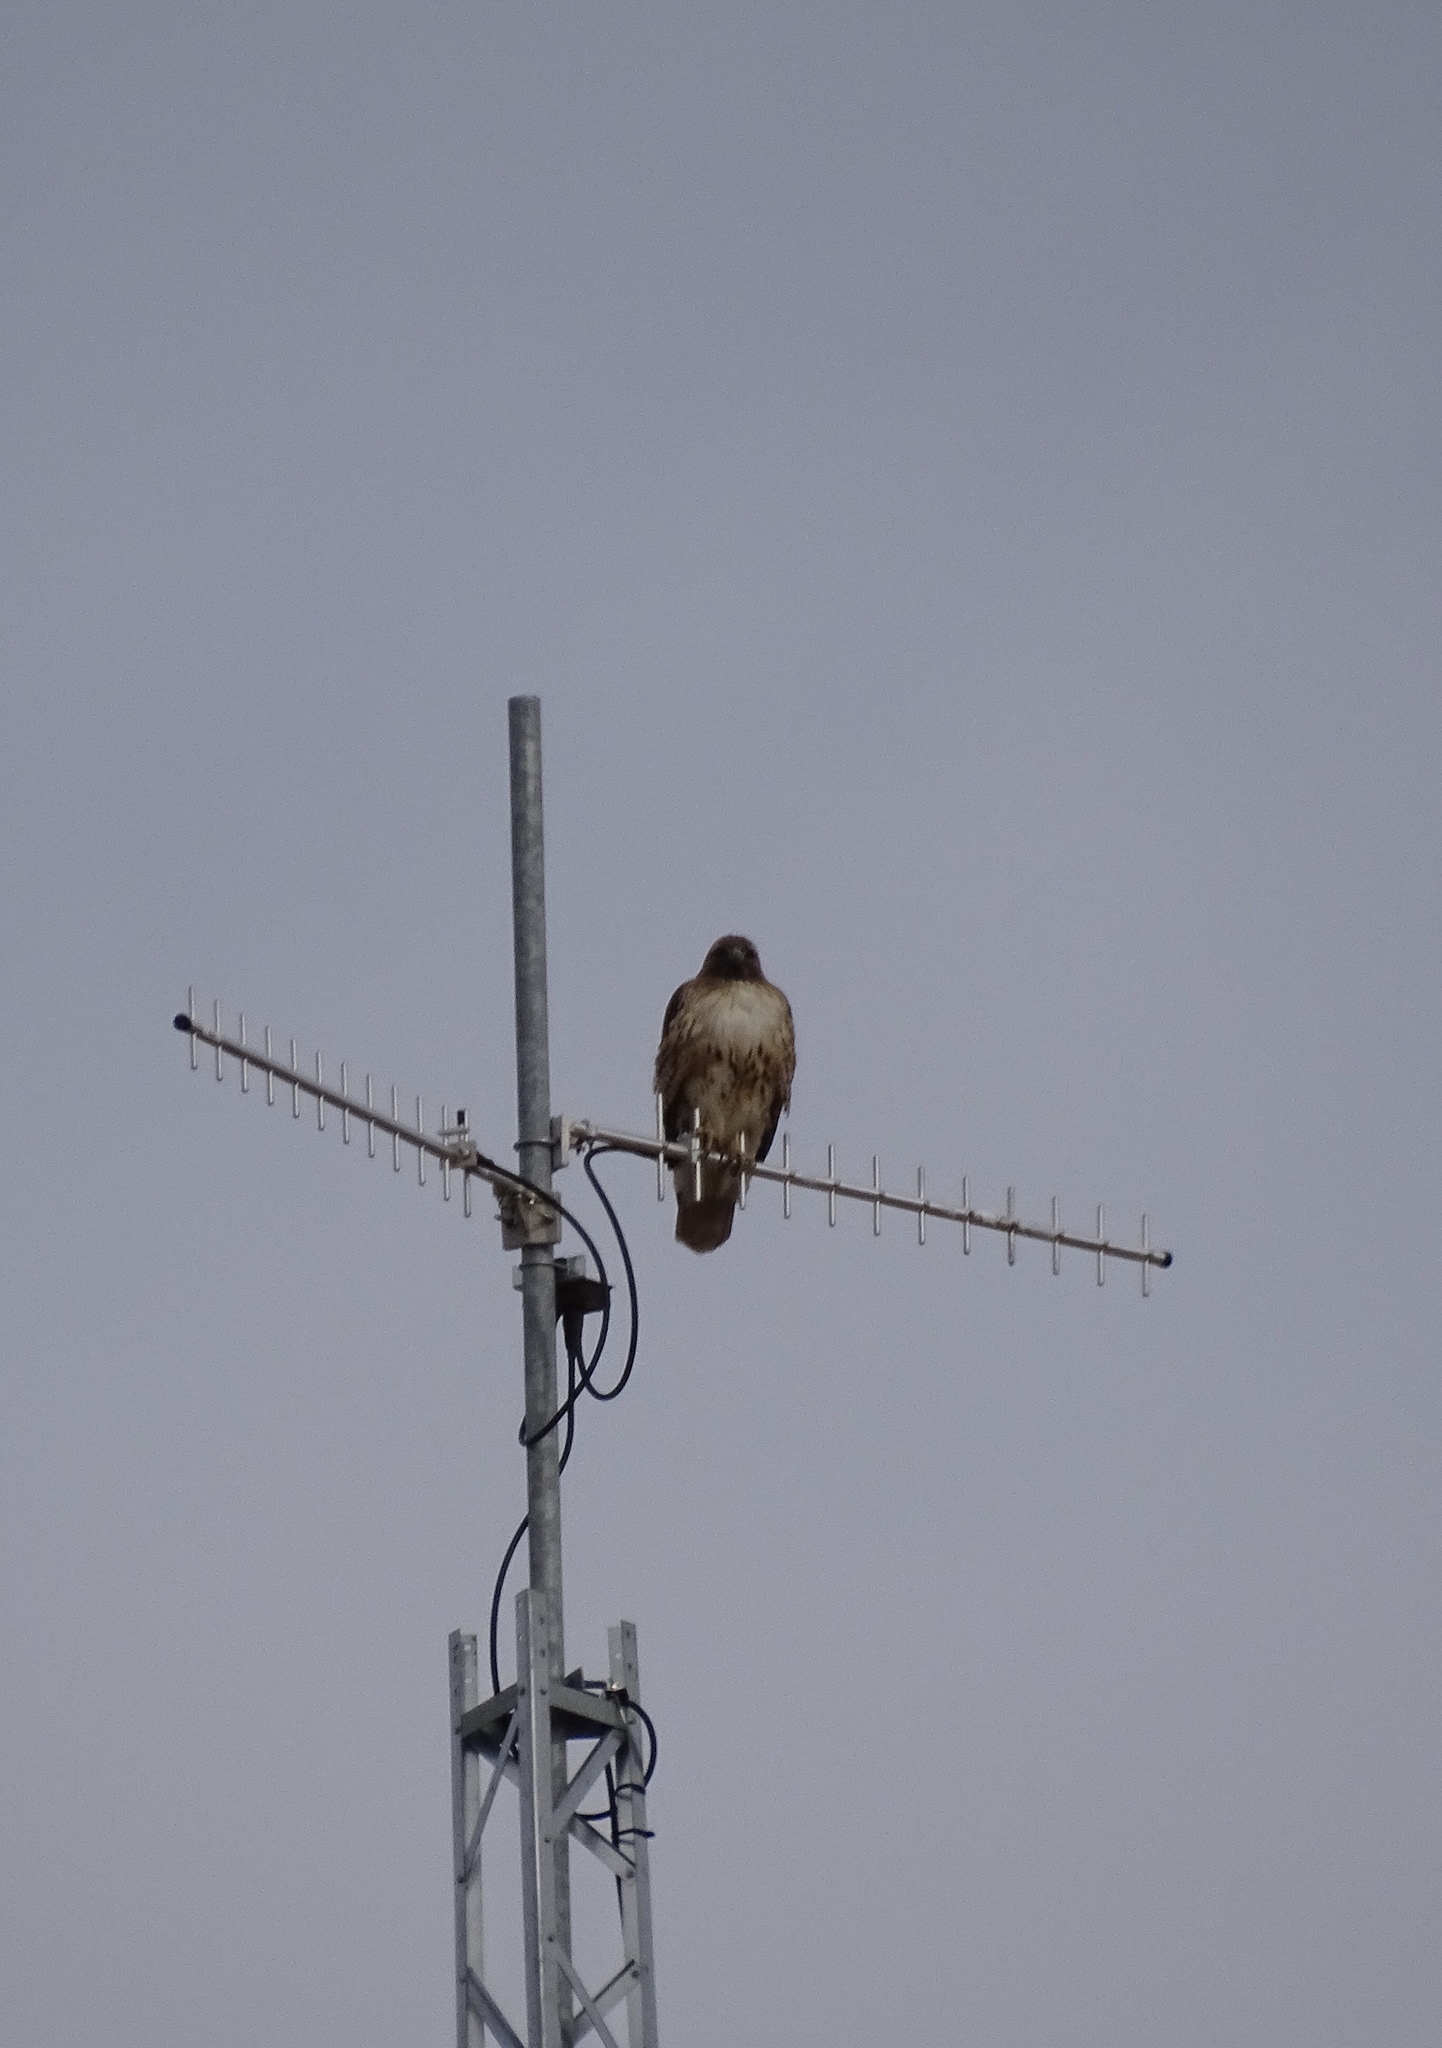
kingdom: Animalia
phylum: Chordata
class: Aves
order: Accipitriformes
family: Accipitridae
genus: Buteo
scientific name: Buteo jamaicensis
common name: Red-tailed hawk
